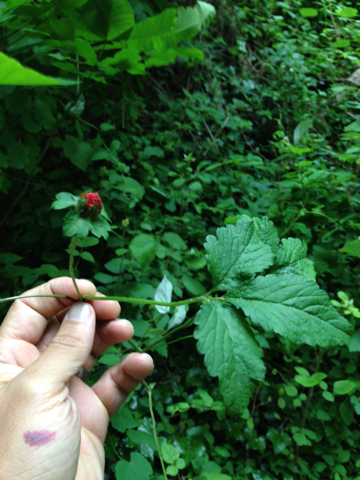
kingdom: Plantae
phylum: Tracheophyta
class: Magnoliopsida
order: Rosales
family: Rosaceae
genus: Potentilla
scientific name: Potentilla indica
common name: Yellow-flowered strawberry
